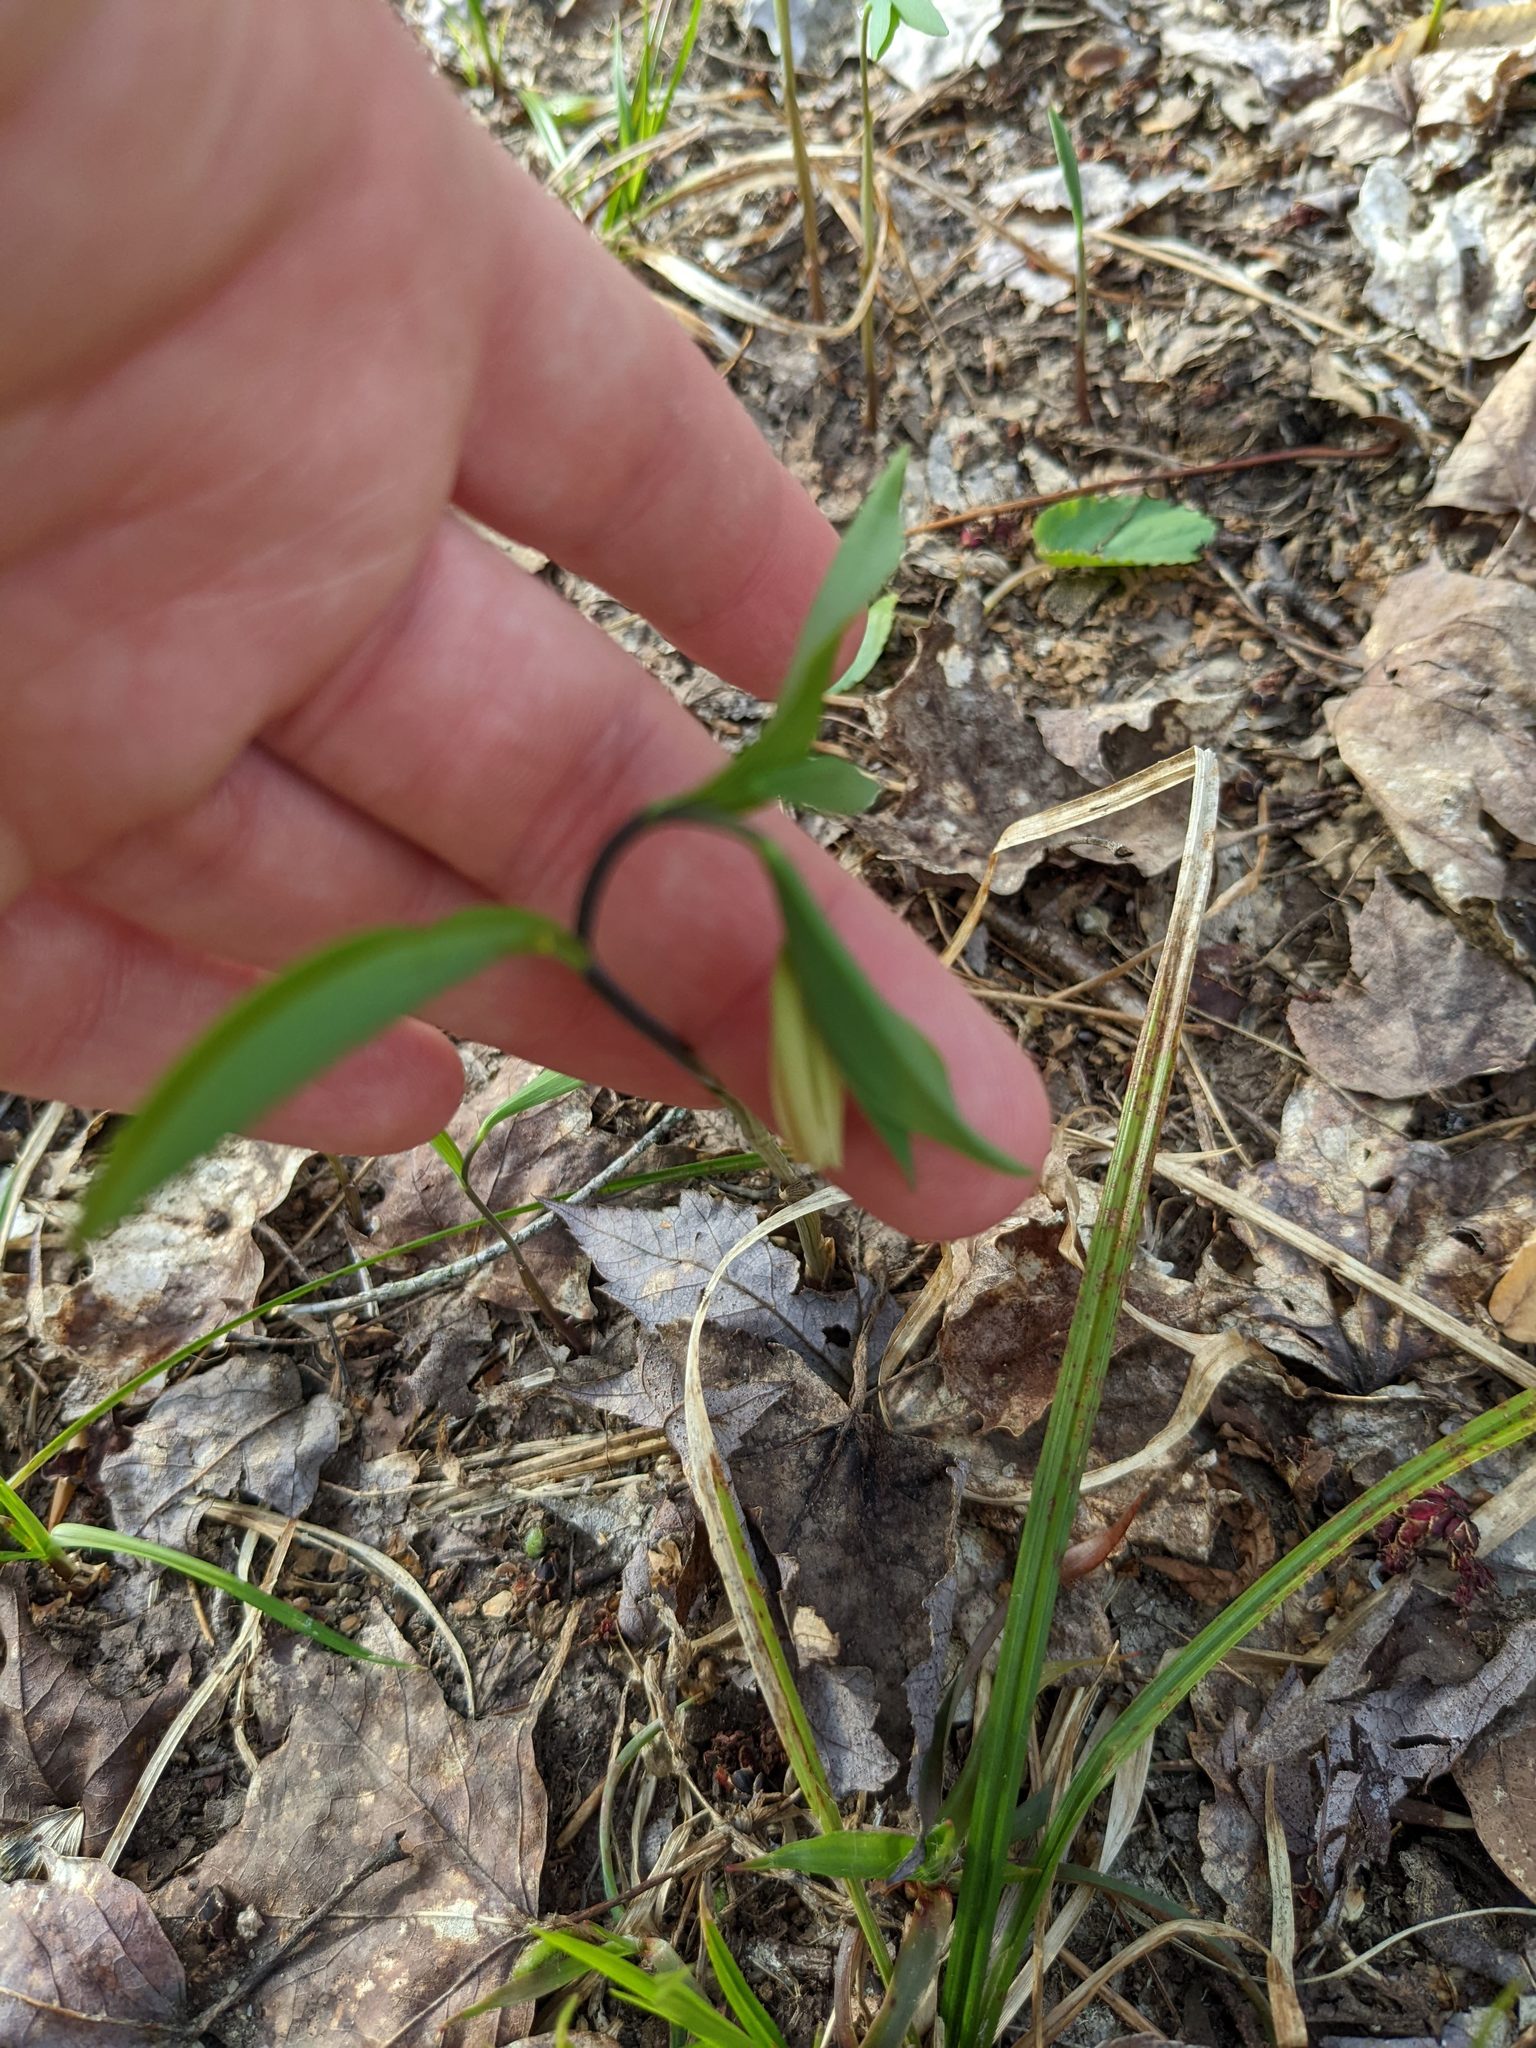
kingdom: Plantae
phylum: Tracheophyta
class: Liliopsida
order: Liliales
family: Colchicaceae
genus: Uvularia
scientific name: Uvularia sessilifolia
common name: Straw-lily
